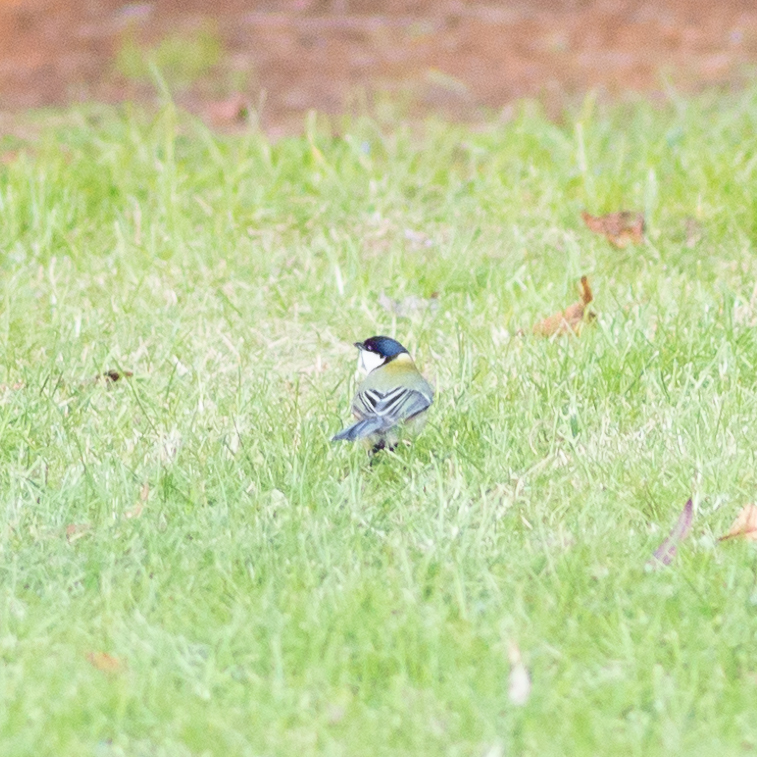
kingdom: Animalia
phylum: Chordata
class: Aves
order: Passeriformes
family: Paridae
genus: Parus
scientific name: Parus major
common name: Great tit
